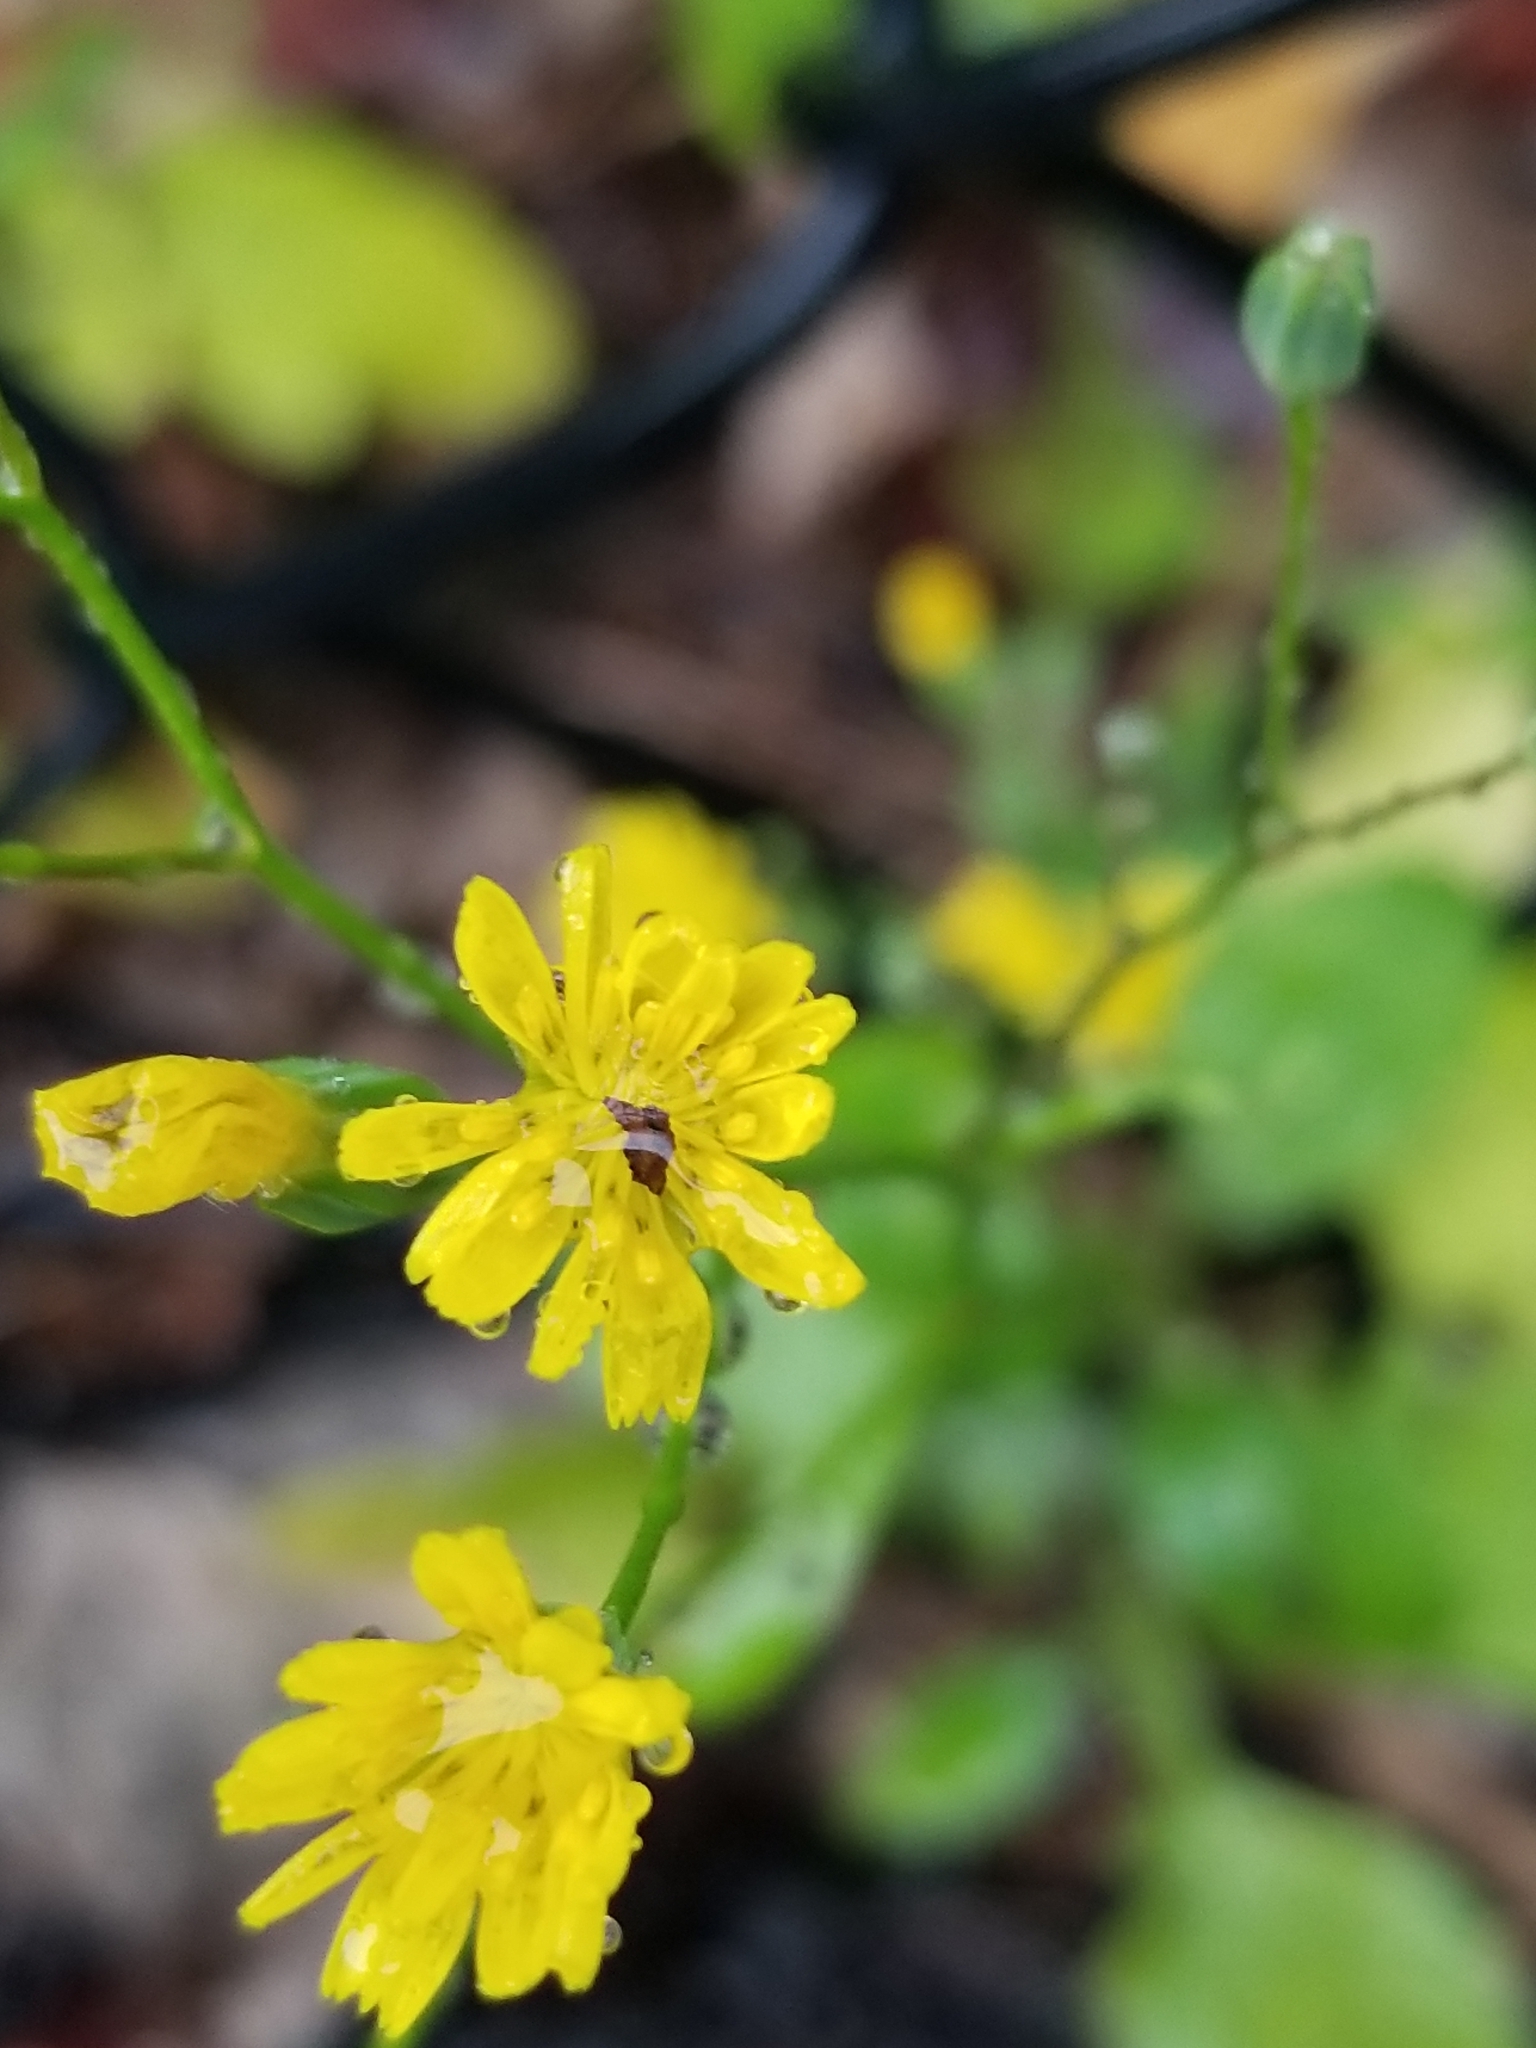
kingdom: Plantae
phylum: Tracheophyta
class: Magnoliopsida
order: Asterales
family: Asteraceae
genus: Lapsana
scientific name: Lapsana communis
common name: Nipplewort
